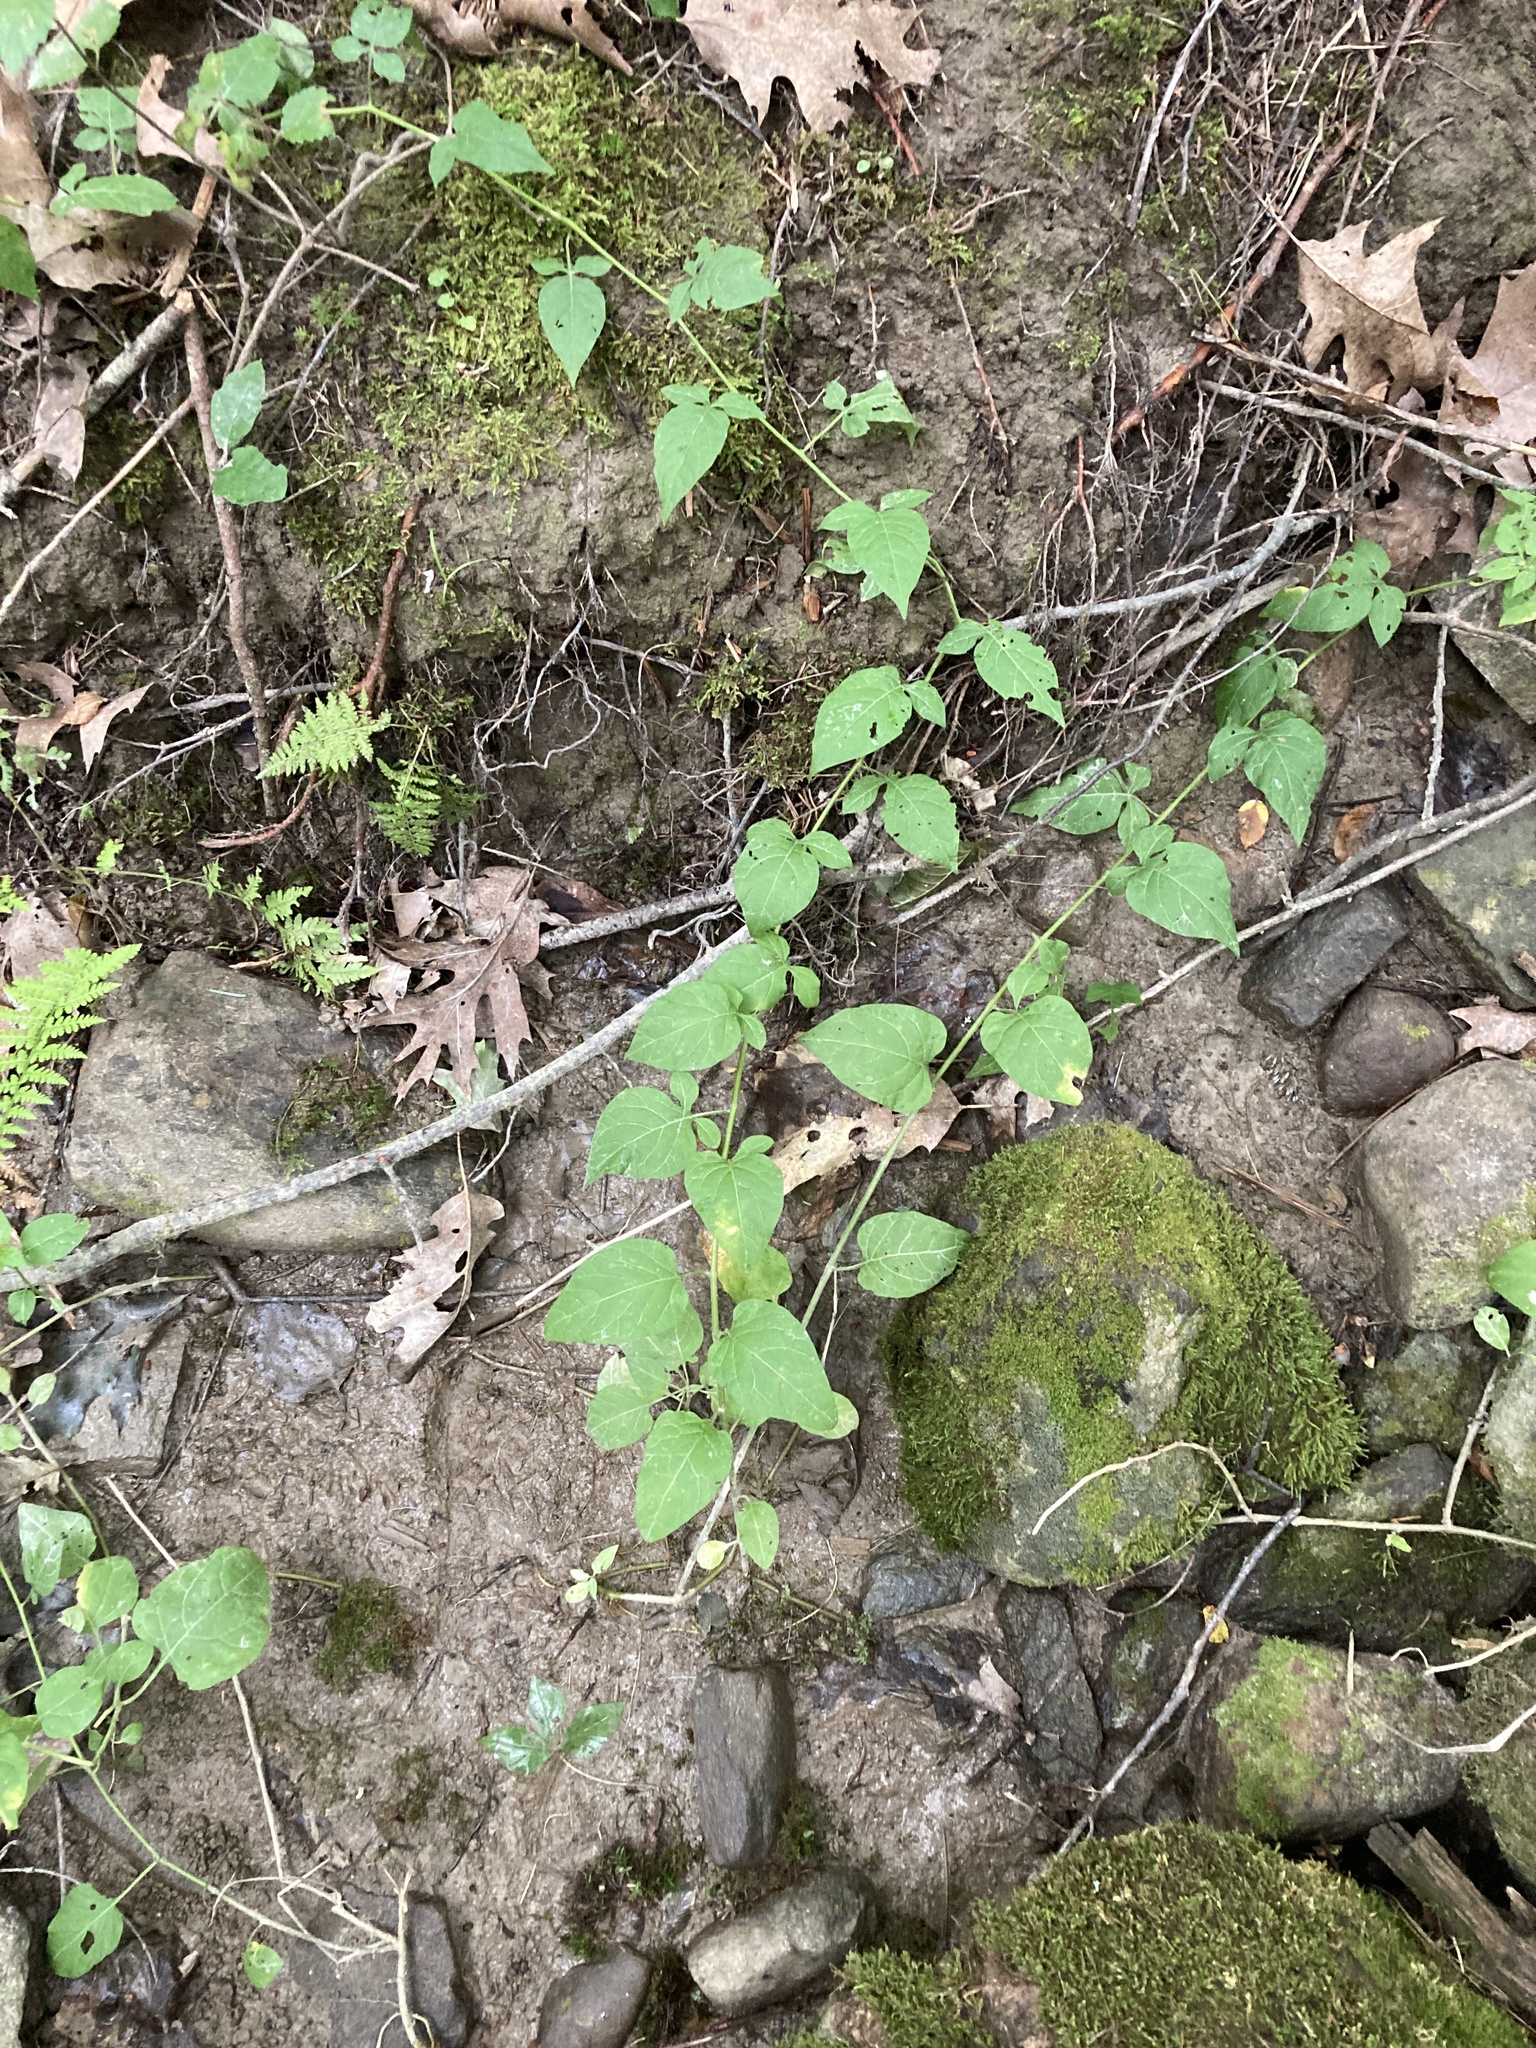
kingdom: Plantae
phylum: Tracheophyta
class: Magnoliopsida
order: Solanales
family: Solanaceae
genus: Solanum
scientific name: Solanum dulcamara
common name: Climbing nightshade
